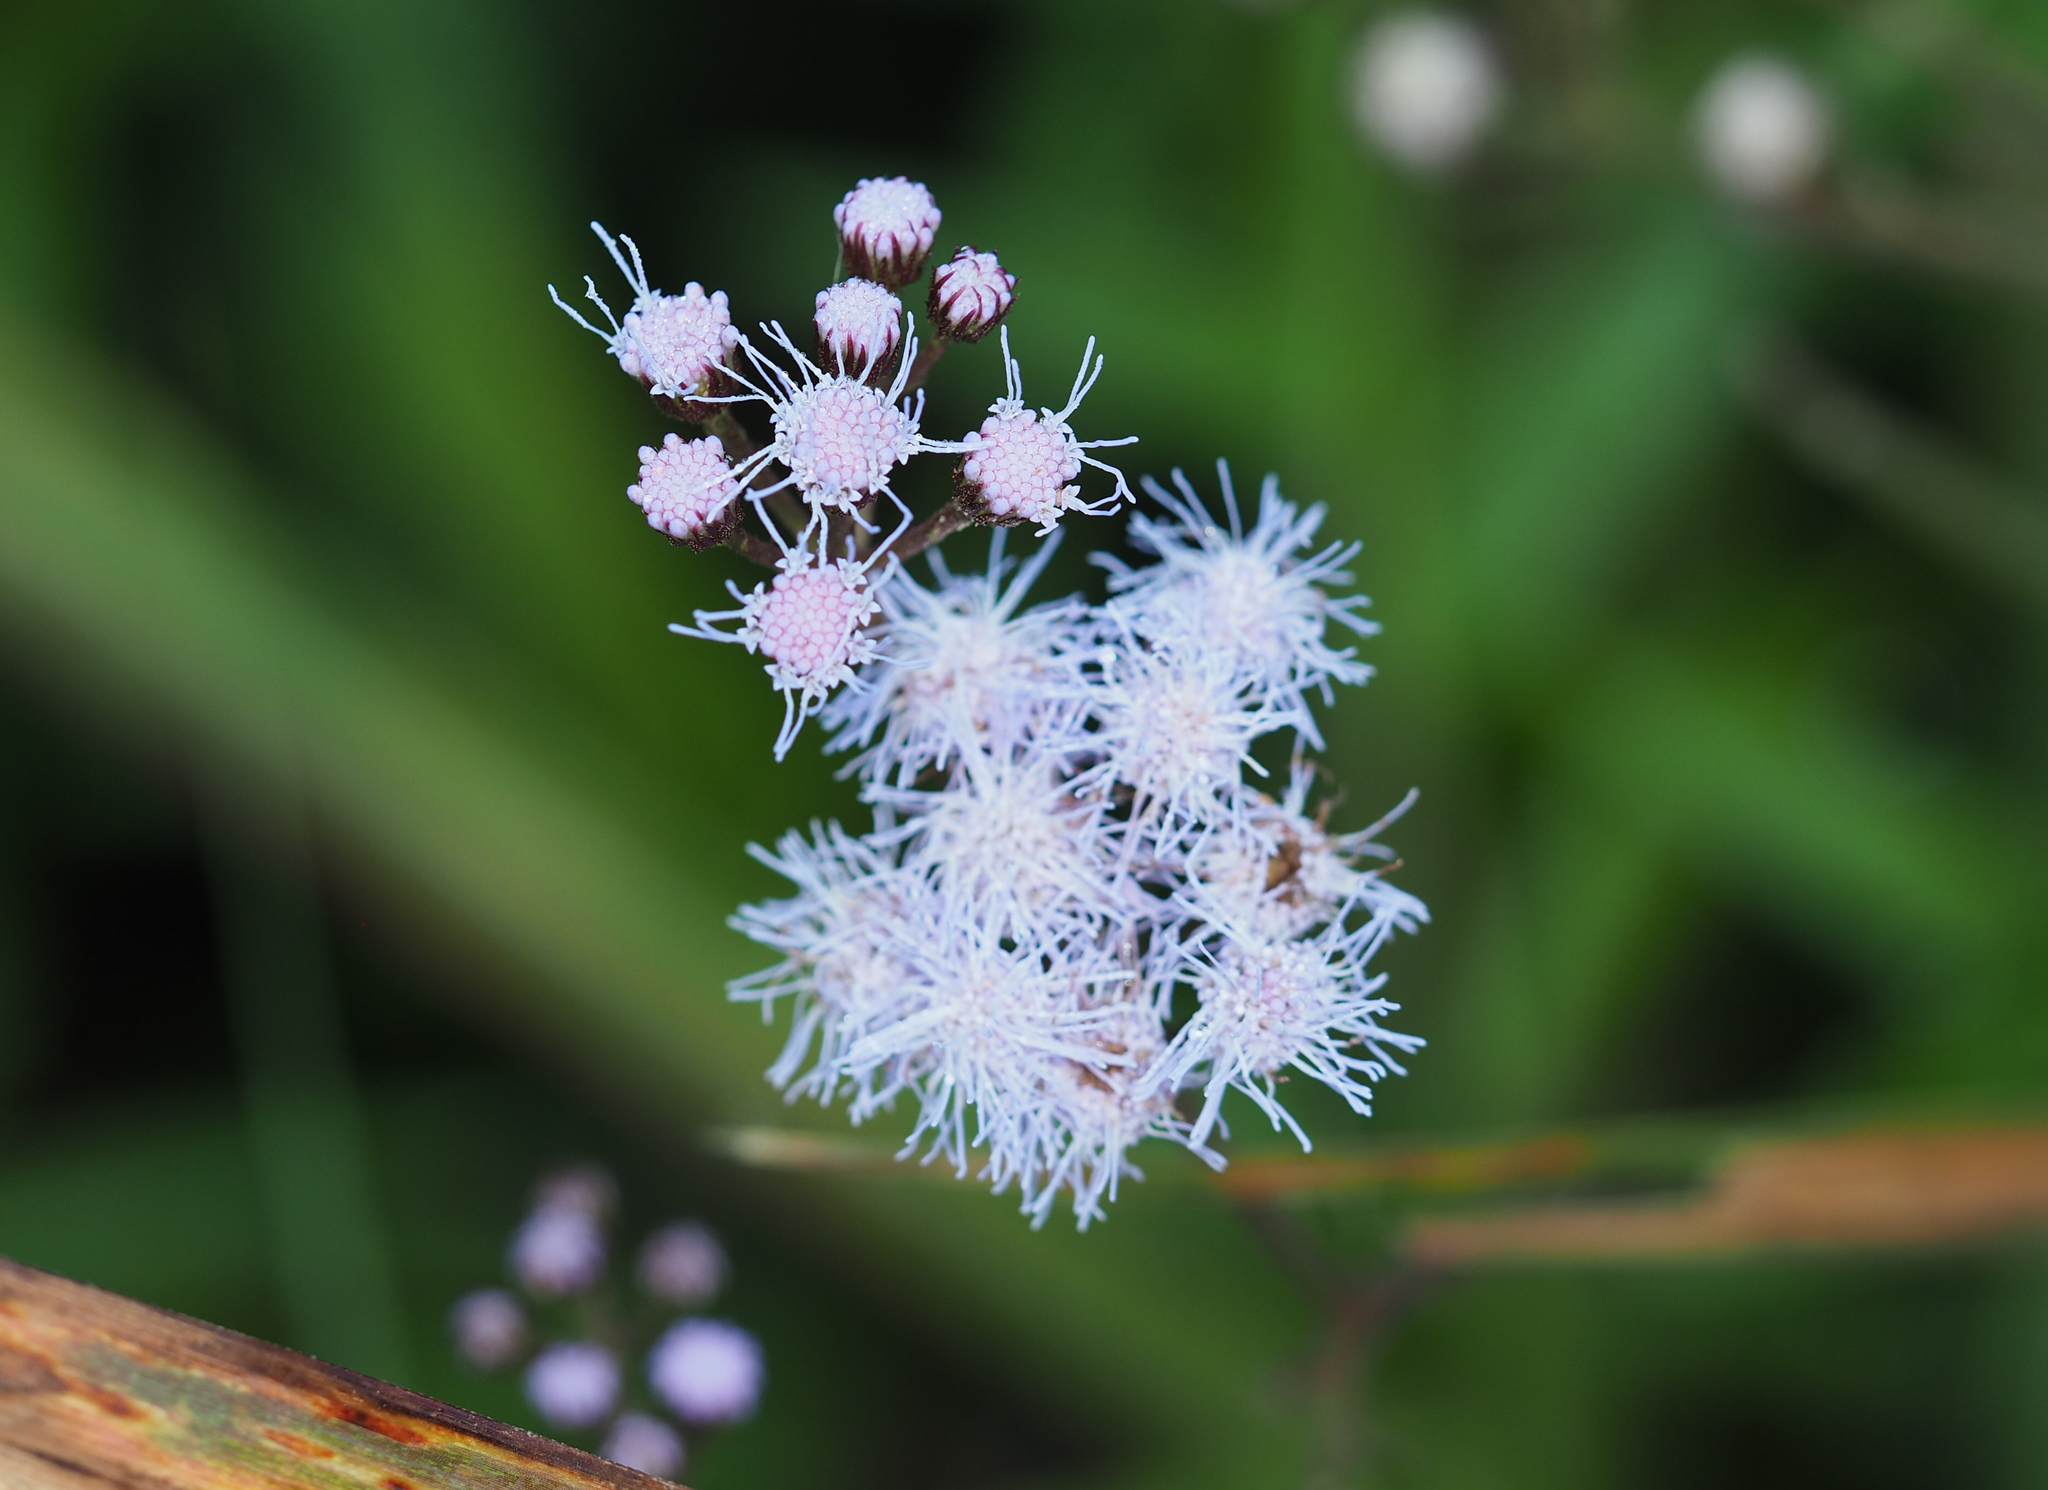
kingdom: Plantae
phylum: Tracheophyta
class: Magnoliopsida
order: Asterales
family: Asteraceae
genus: Conoclinium
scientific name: Conoclinium coelestinum
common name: Blue mistflower
